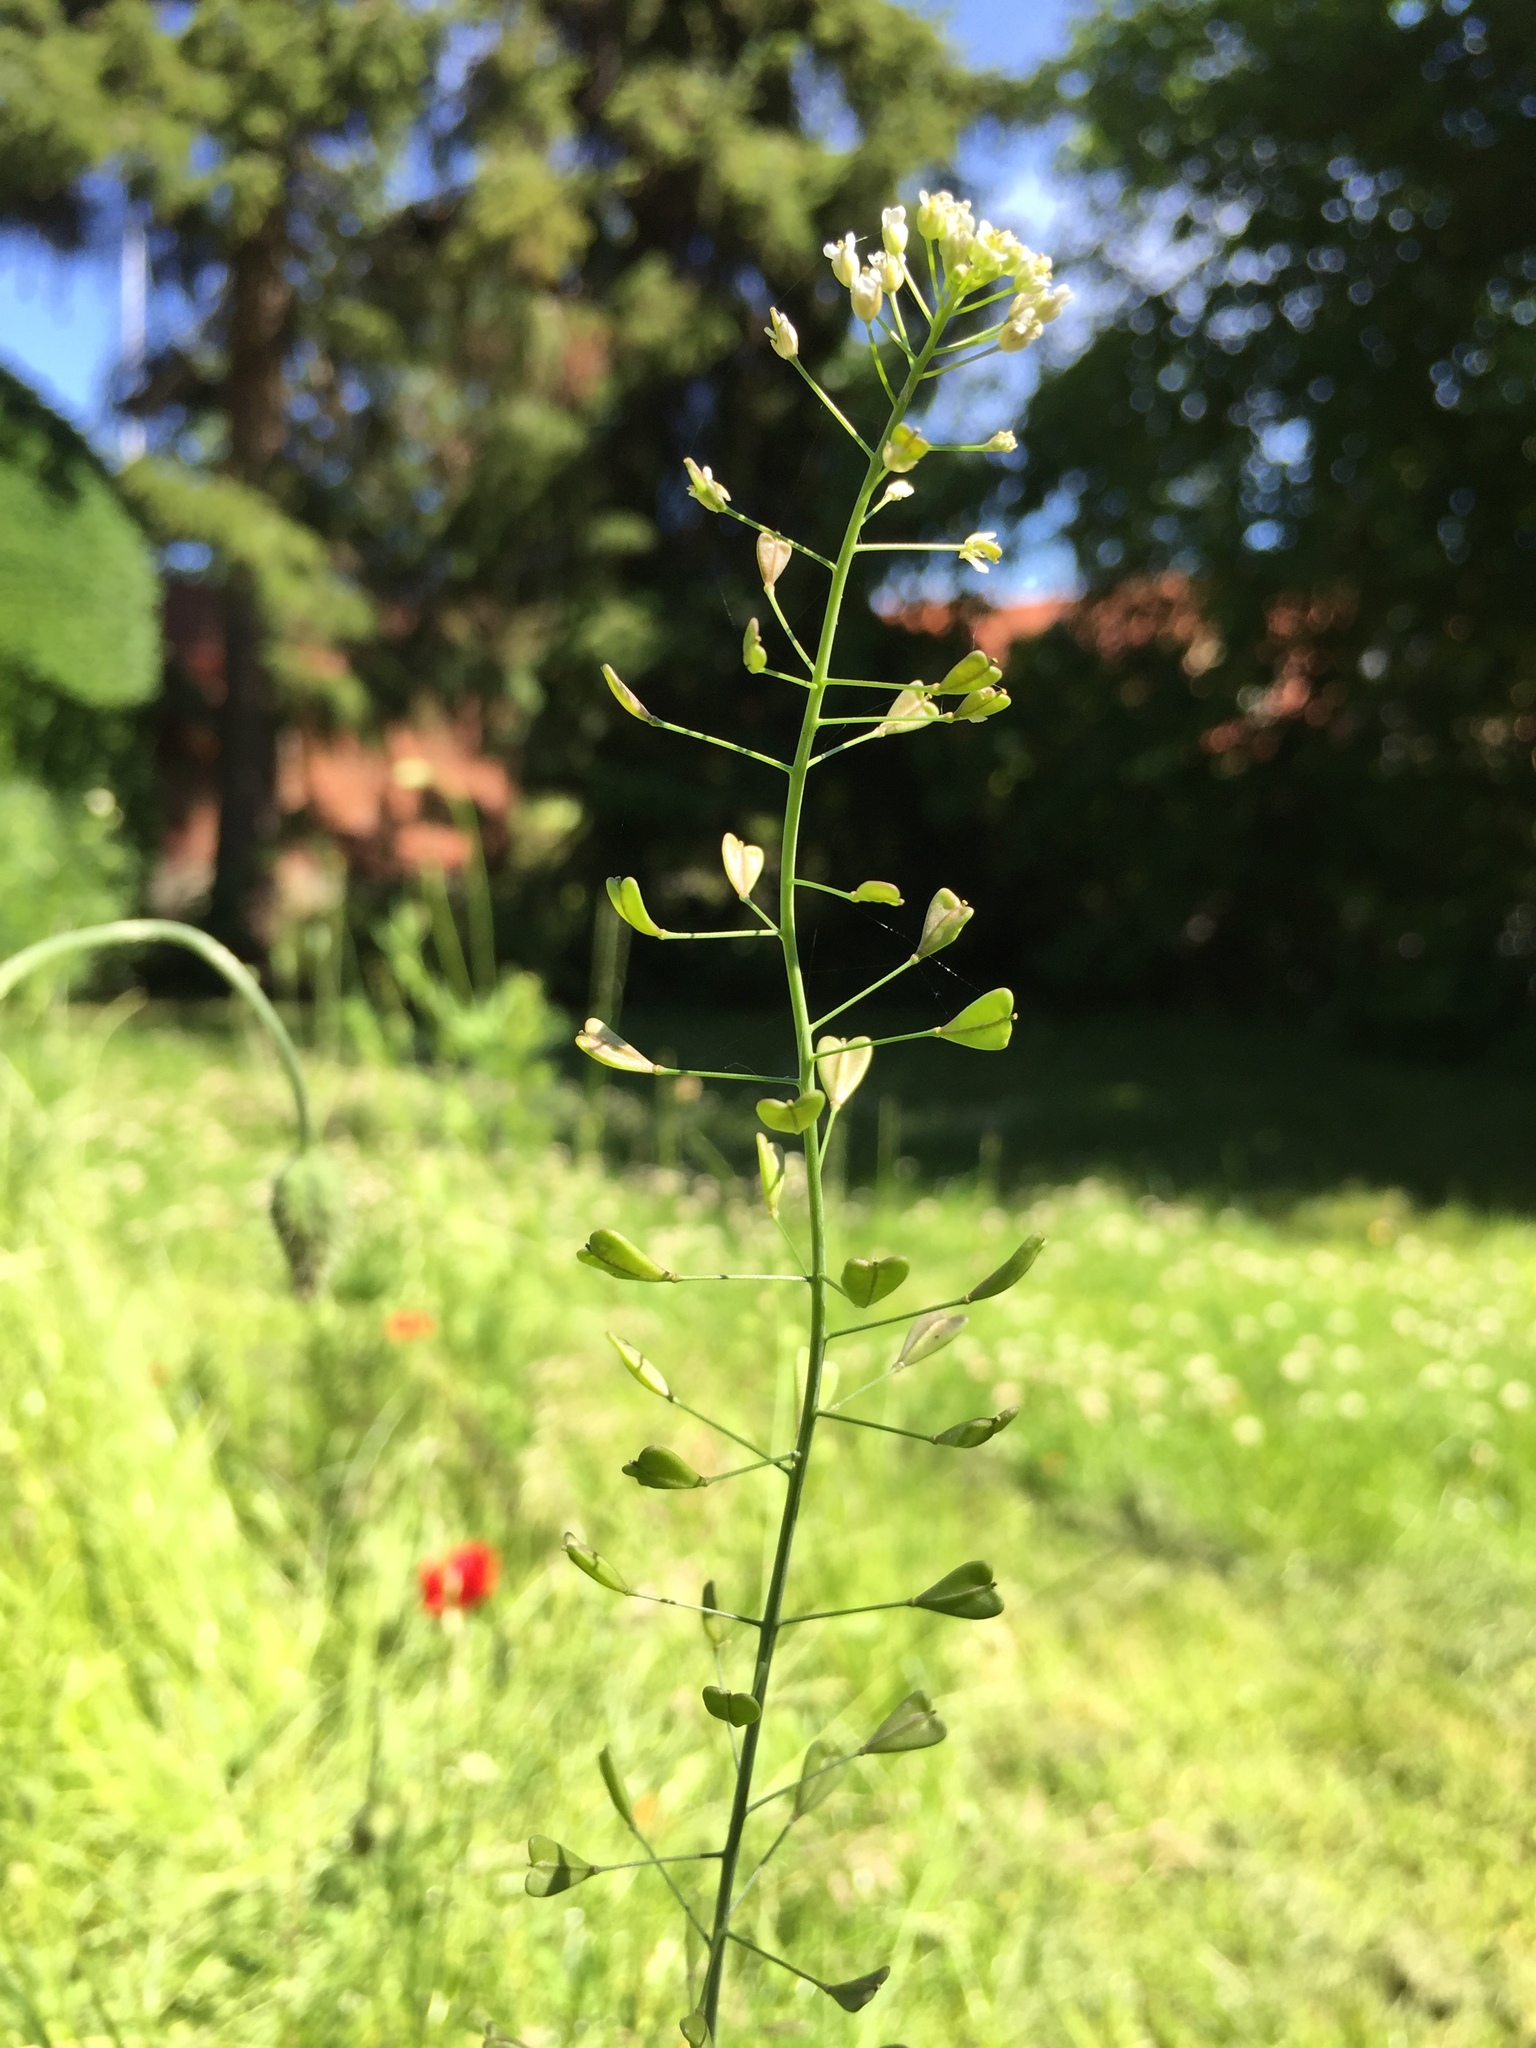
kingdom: Plantae
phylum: Tracheophyta
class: Magnoliopsida
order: Brassicales
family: Brassicaceae
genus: Capsella
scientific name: Capsella bursa-pastoris
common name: Shepherd's purse
